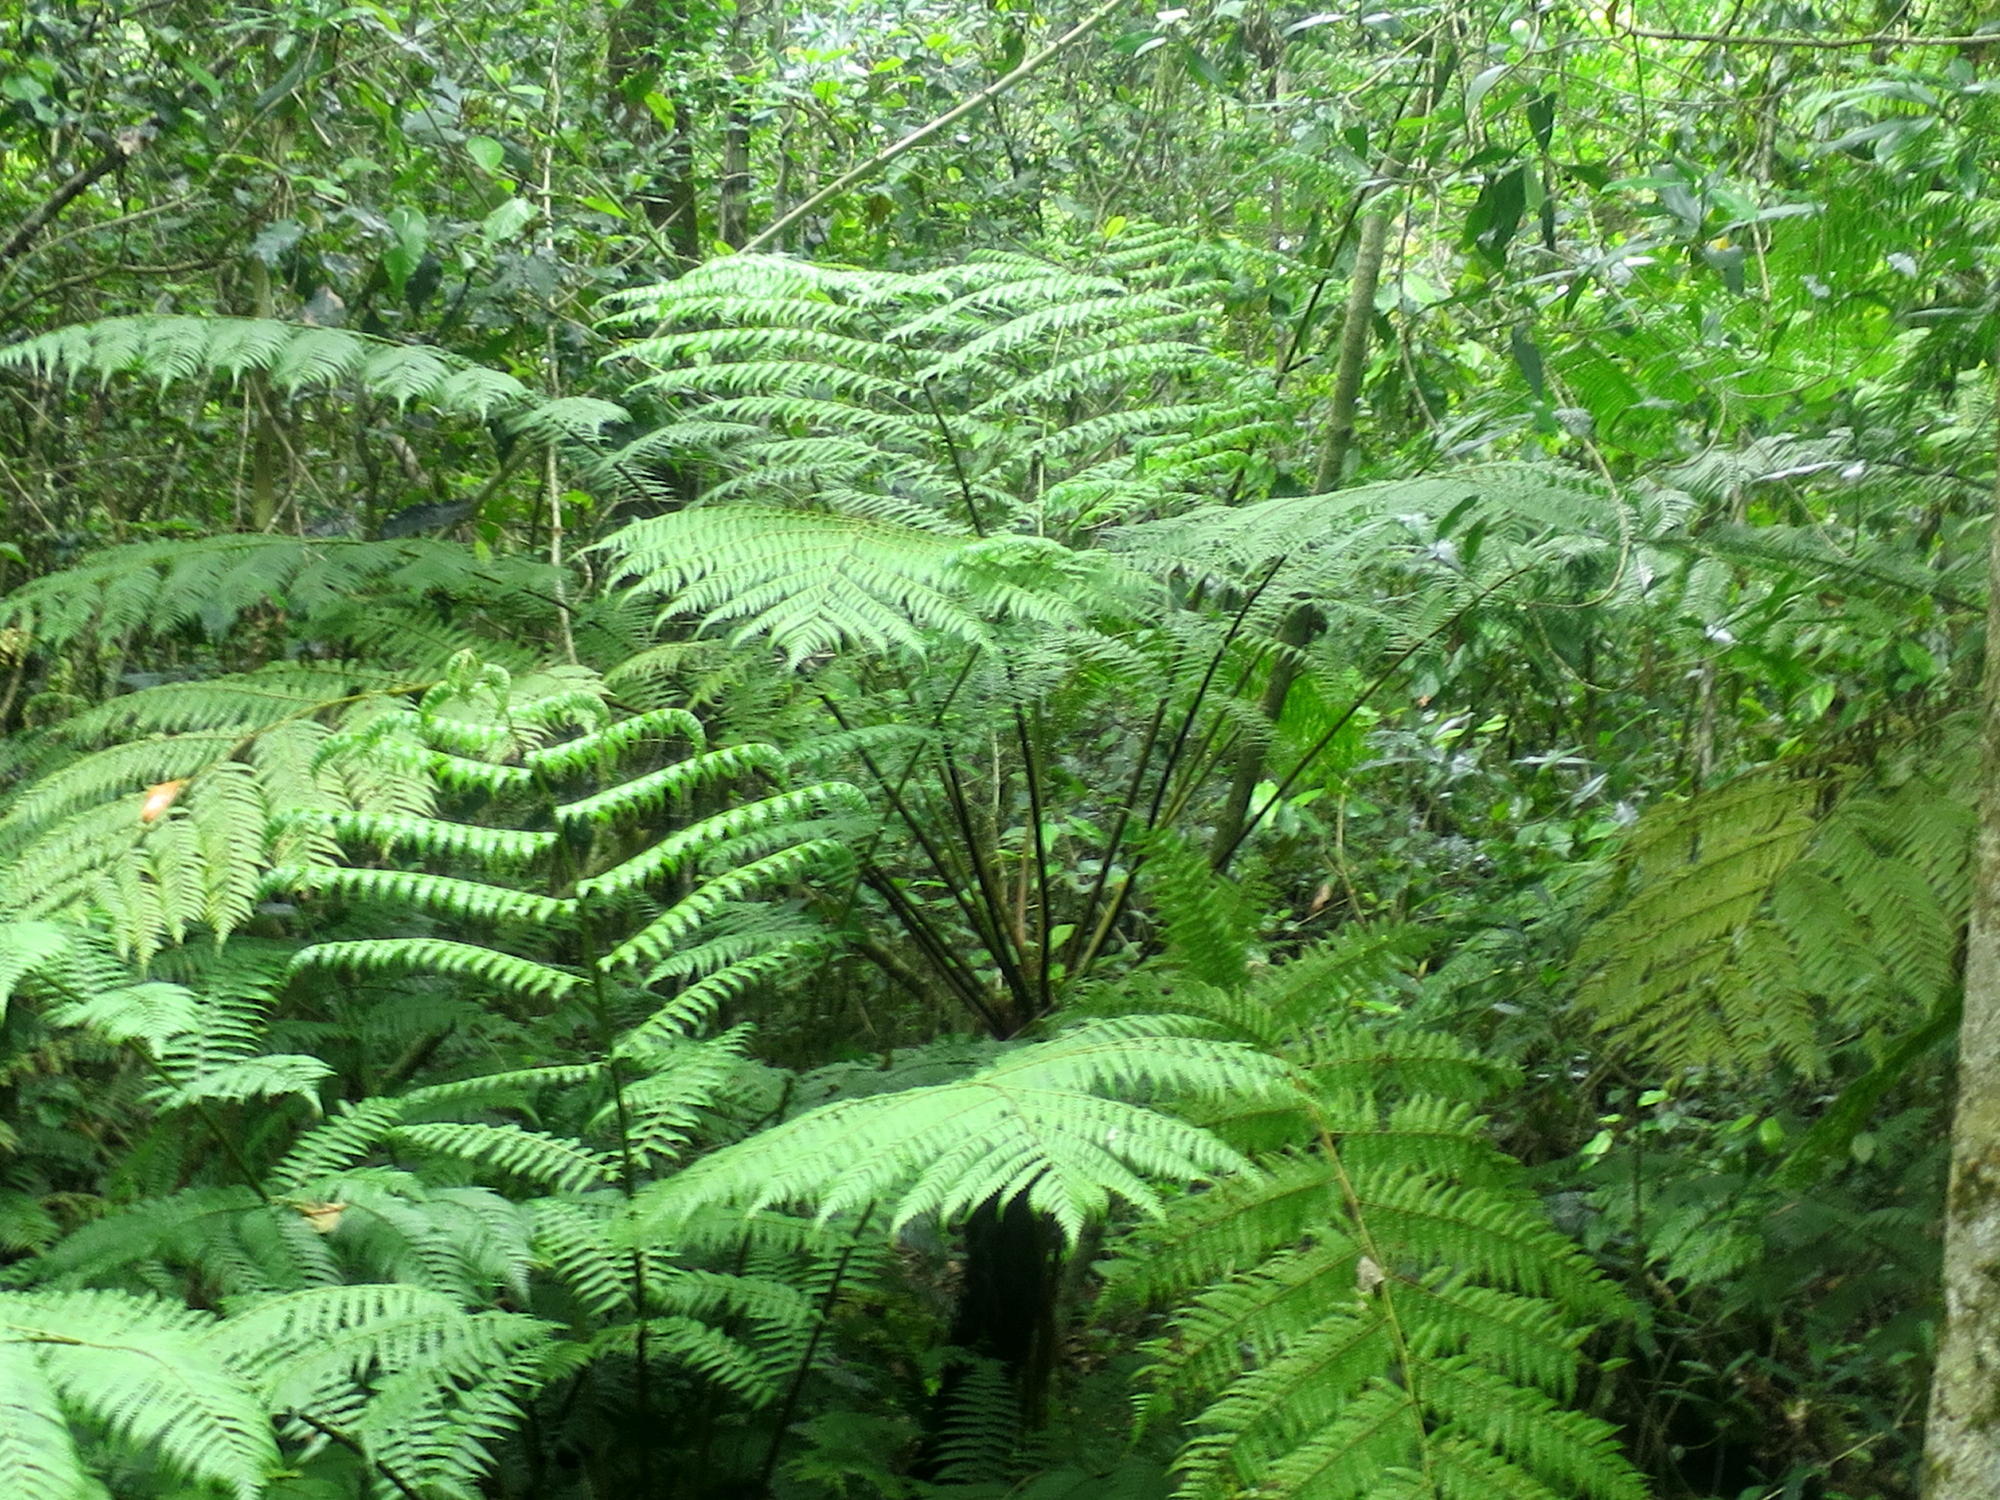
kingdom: Plantae
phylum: Tracheophyta
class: Polypodiopsida
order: Cyatheales
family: Cyatheaceae
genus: Gymnosphaera
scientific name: Gymnosphaera capensis
